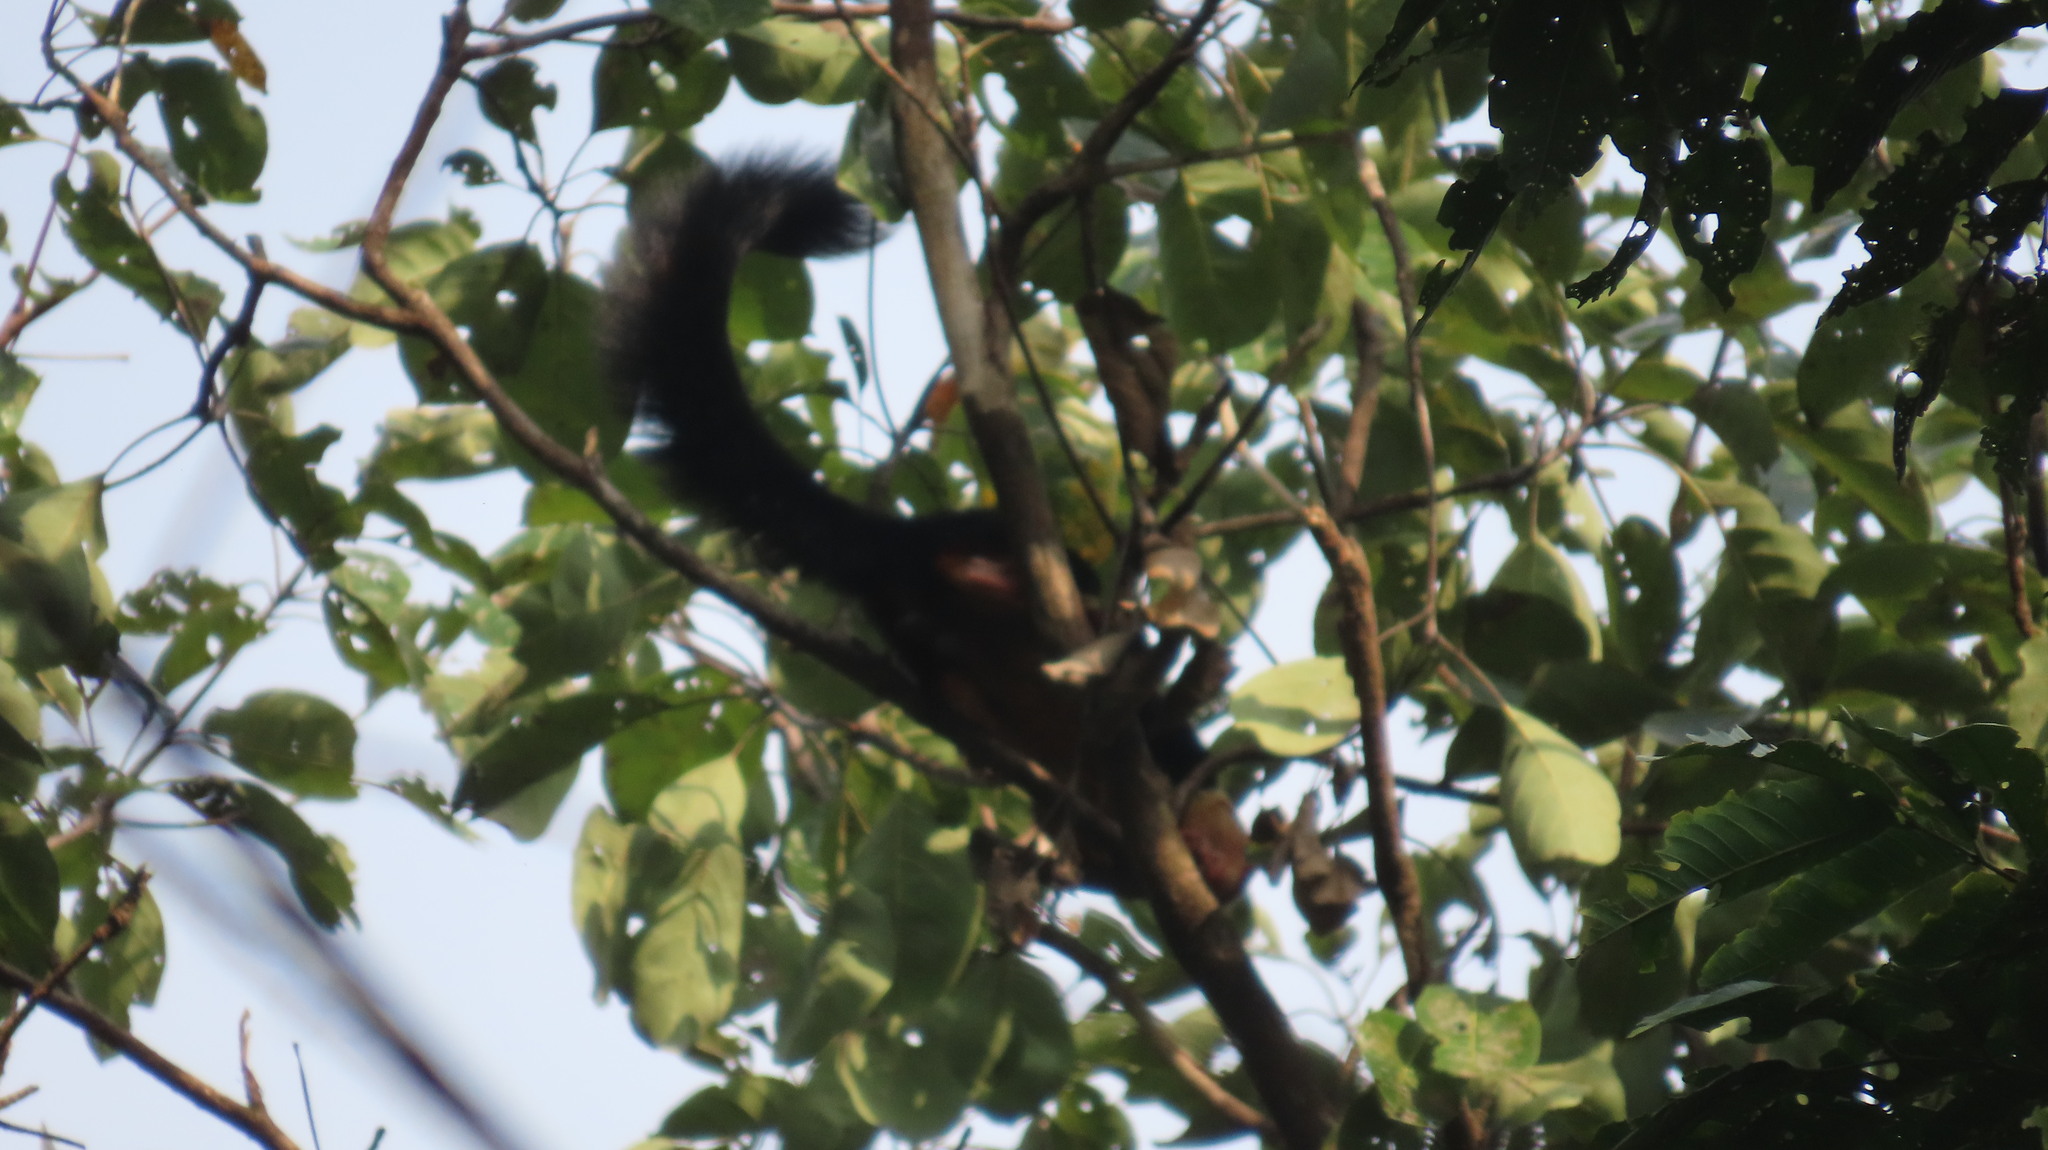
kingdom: Animalia
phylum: Chordata
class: Mammalia
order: Rodentia
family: Sciuridae
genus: Ratufa
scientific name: Ratufa indica
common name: Indian giant squirrel
